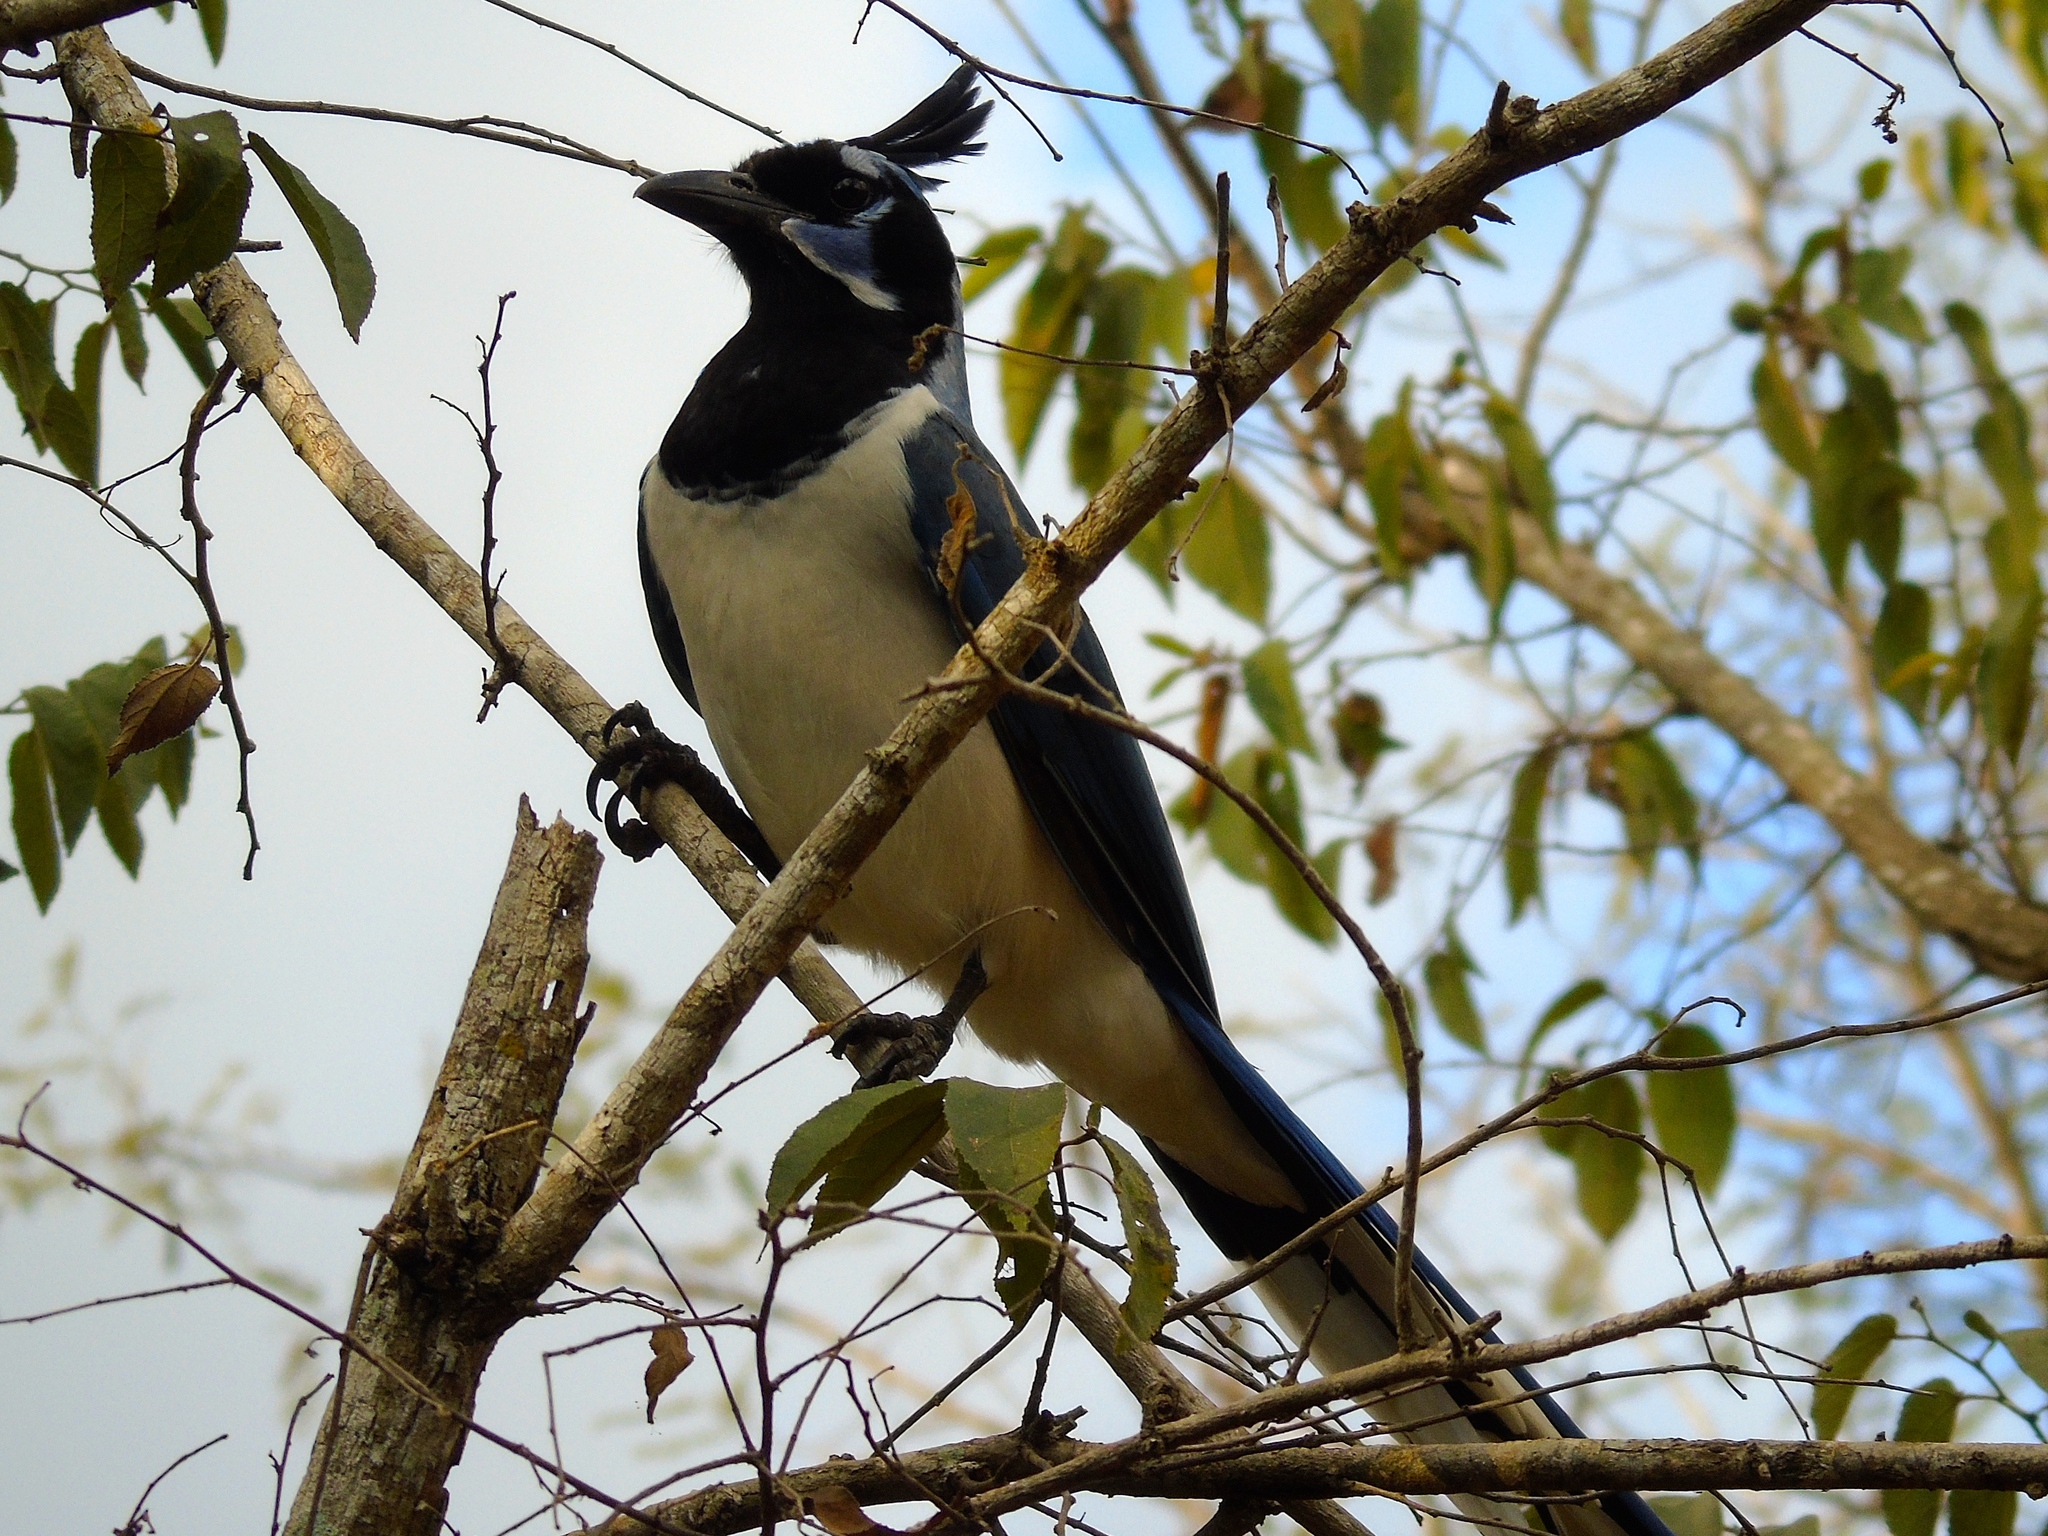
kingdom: Animalia
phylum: Chordata
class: Aves
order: Passeriformes
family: Corvidae
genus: Calocitta
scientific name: Calocitta colliei
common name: Black-throated magpie-jay
